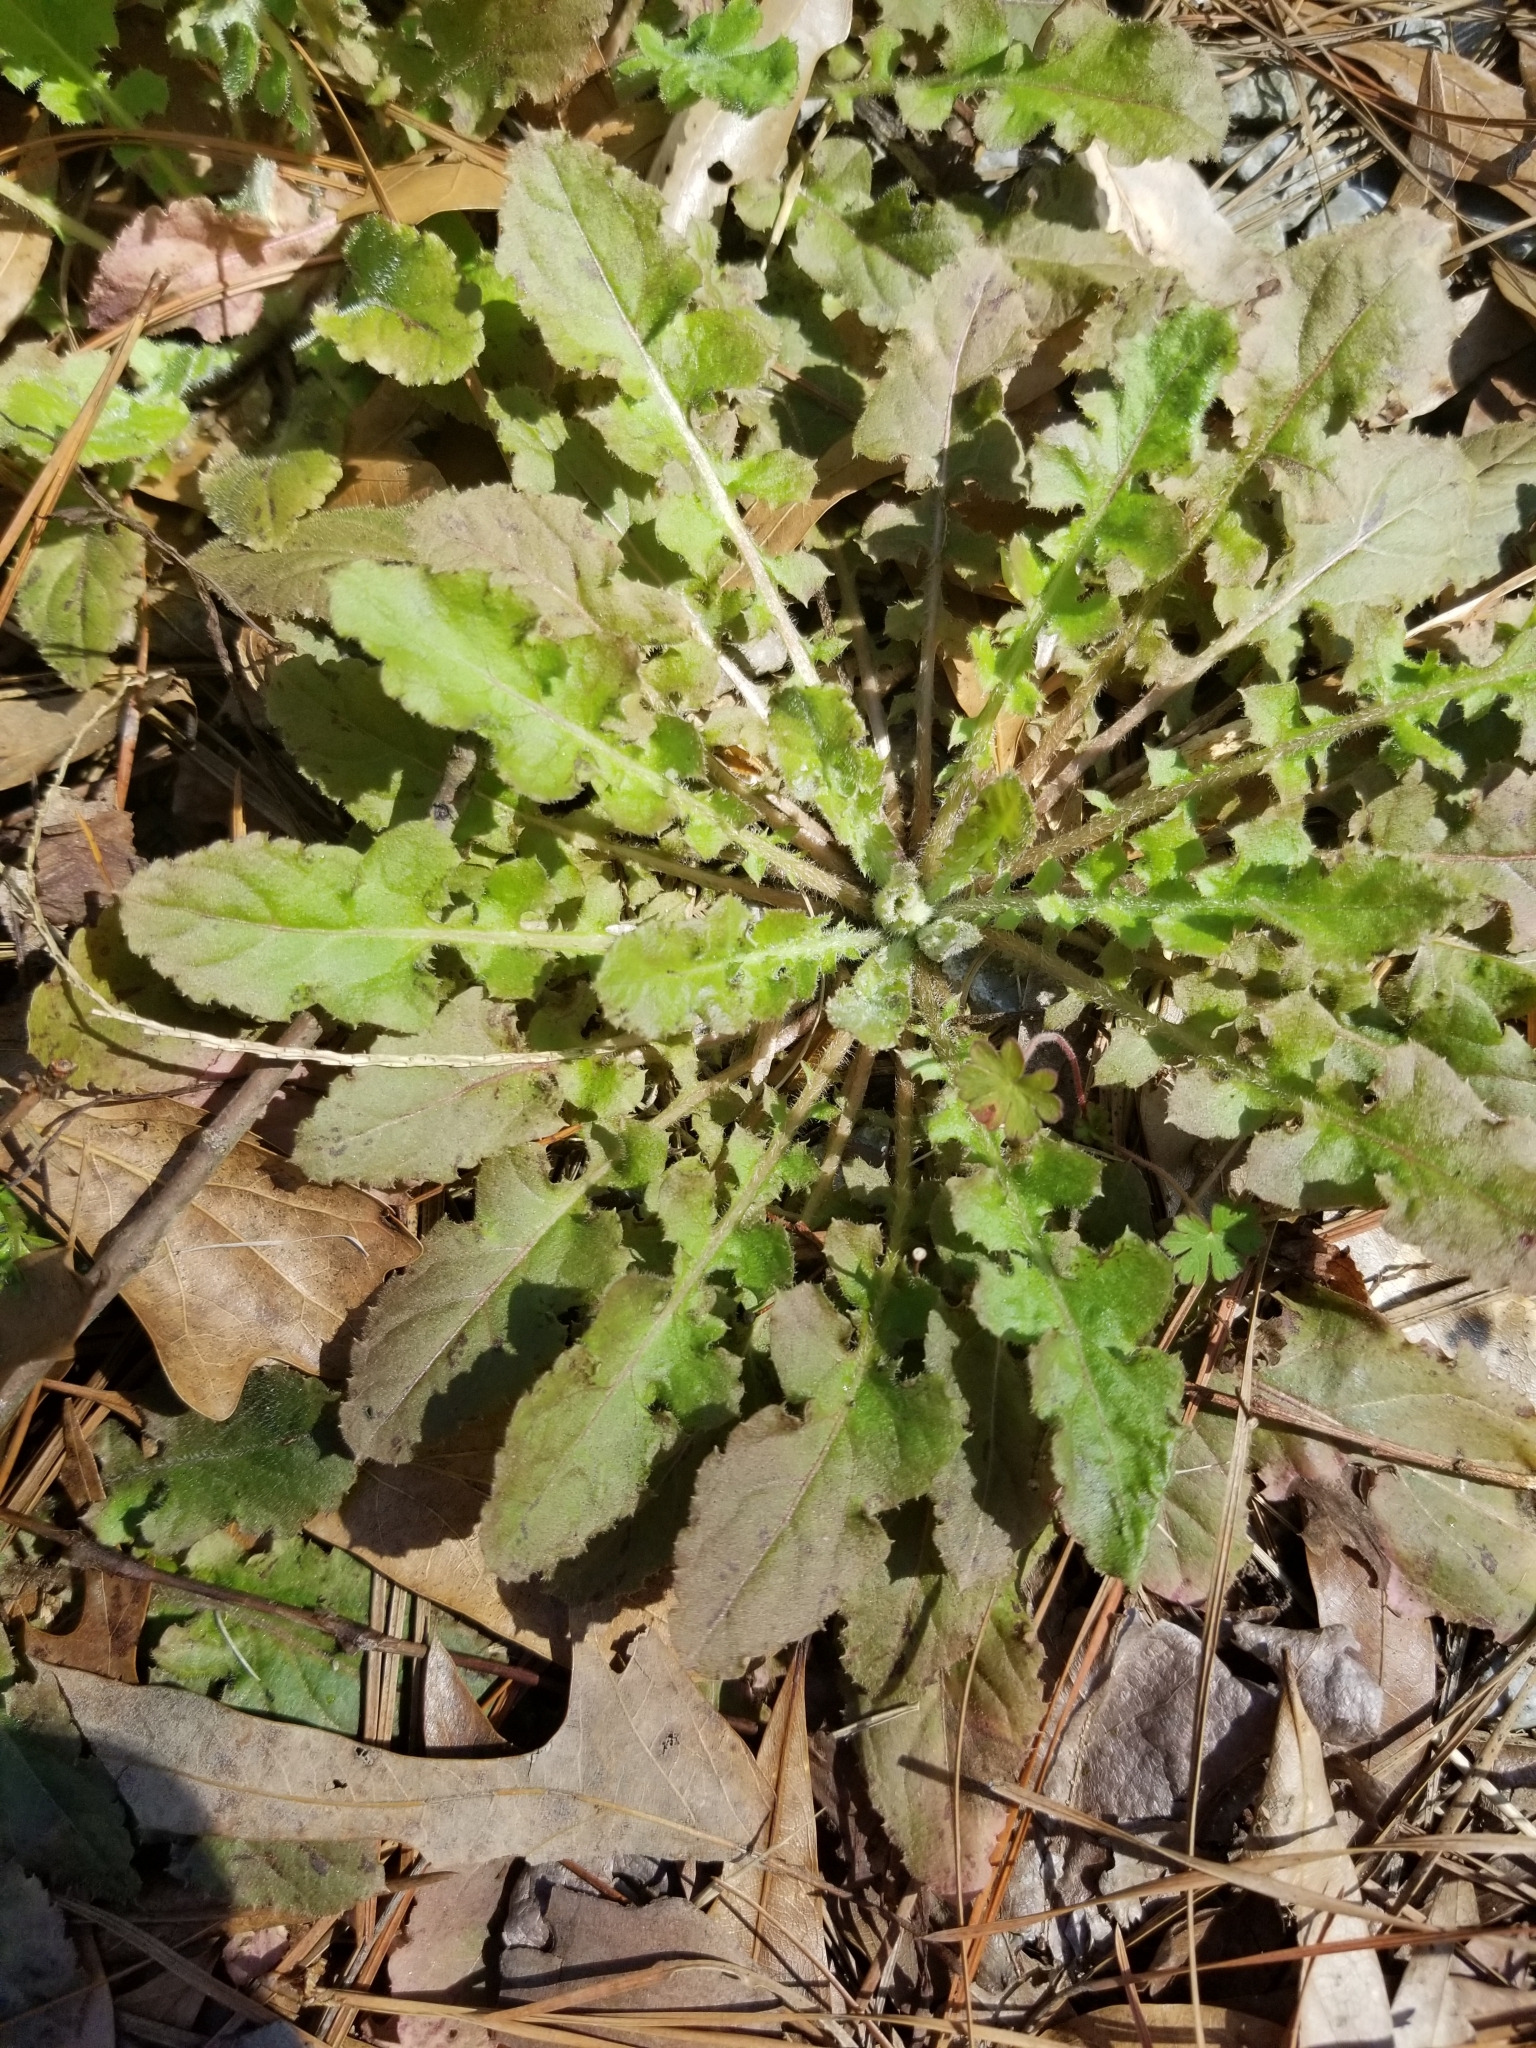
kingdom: Plantae
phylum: Tracheophyta
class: Magnoliopsida
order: Asterales
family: Asteraceae
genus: Youngia
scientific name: Youngia japonica
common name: Oriental false hawksbeard
